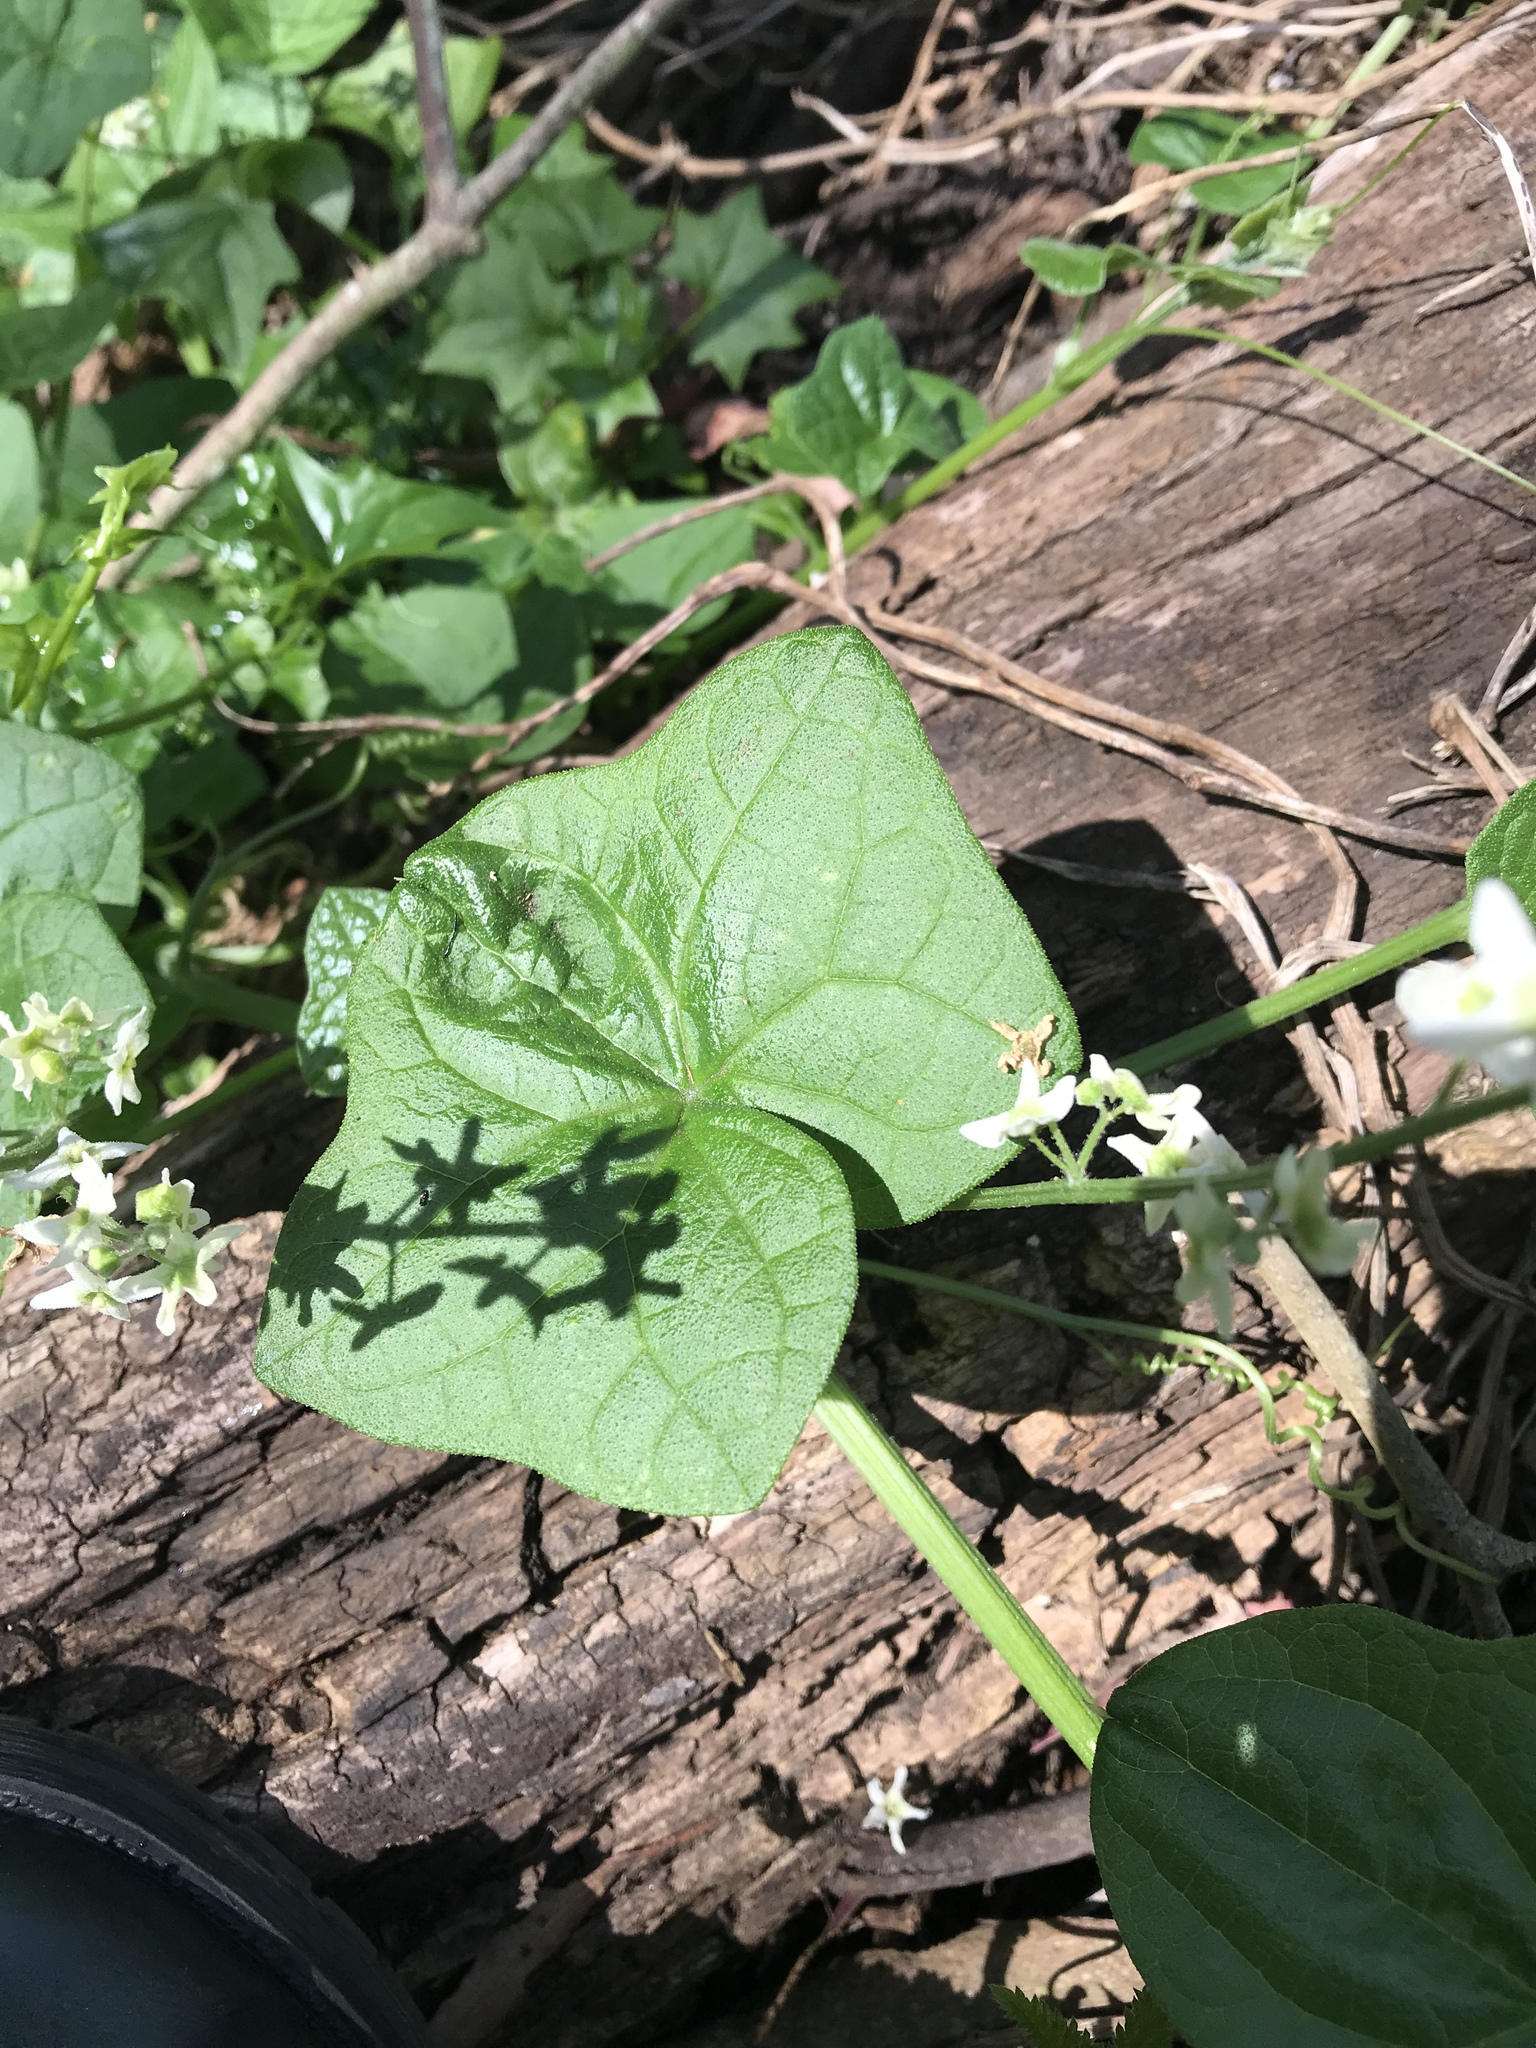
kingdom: Plantae
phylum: Tracheophyta
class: Magnoliopsida
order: Cucurbitales
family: Cucurbitaceae
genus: Marah
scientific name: Marah fabacea
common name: California manroot
